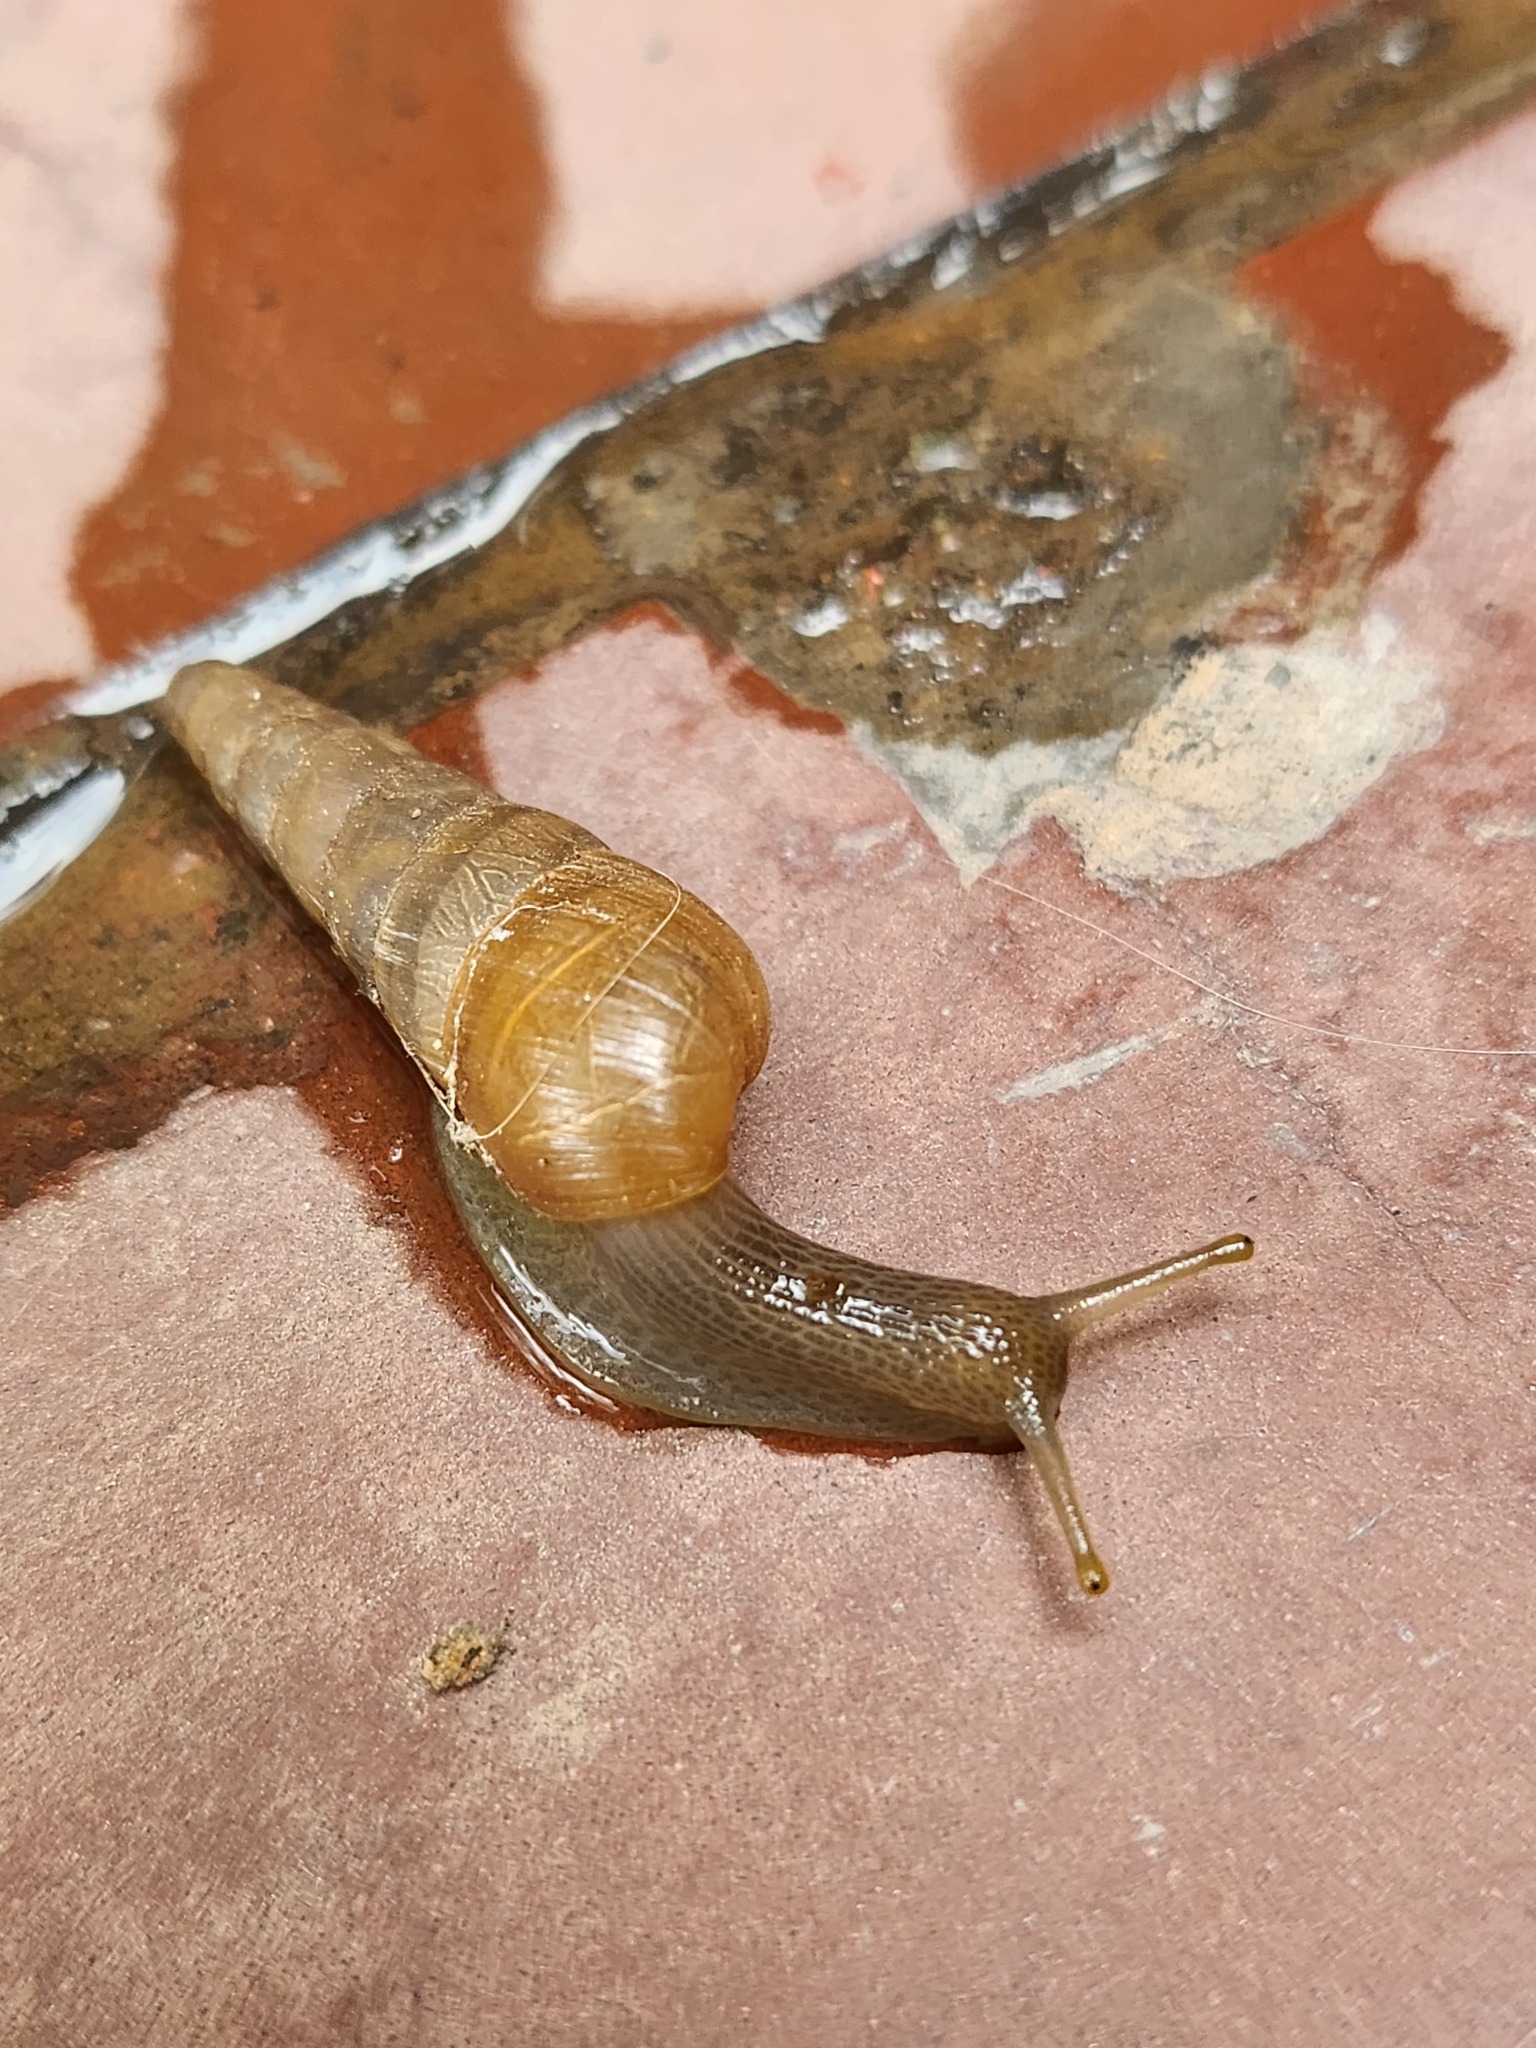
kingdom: Animalia
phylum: Mollusca
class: Gastropoda
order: Stylommatophora
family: Achatinidae
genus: Rumina
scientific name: Rumina decollata
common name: Decollate snail
